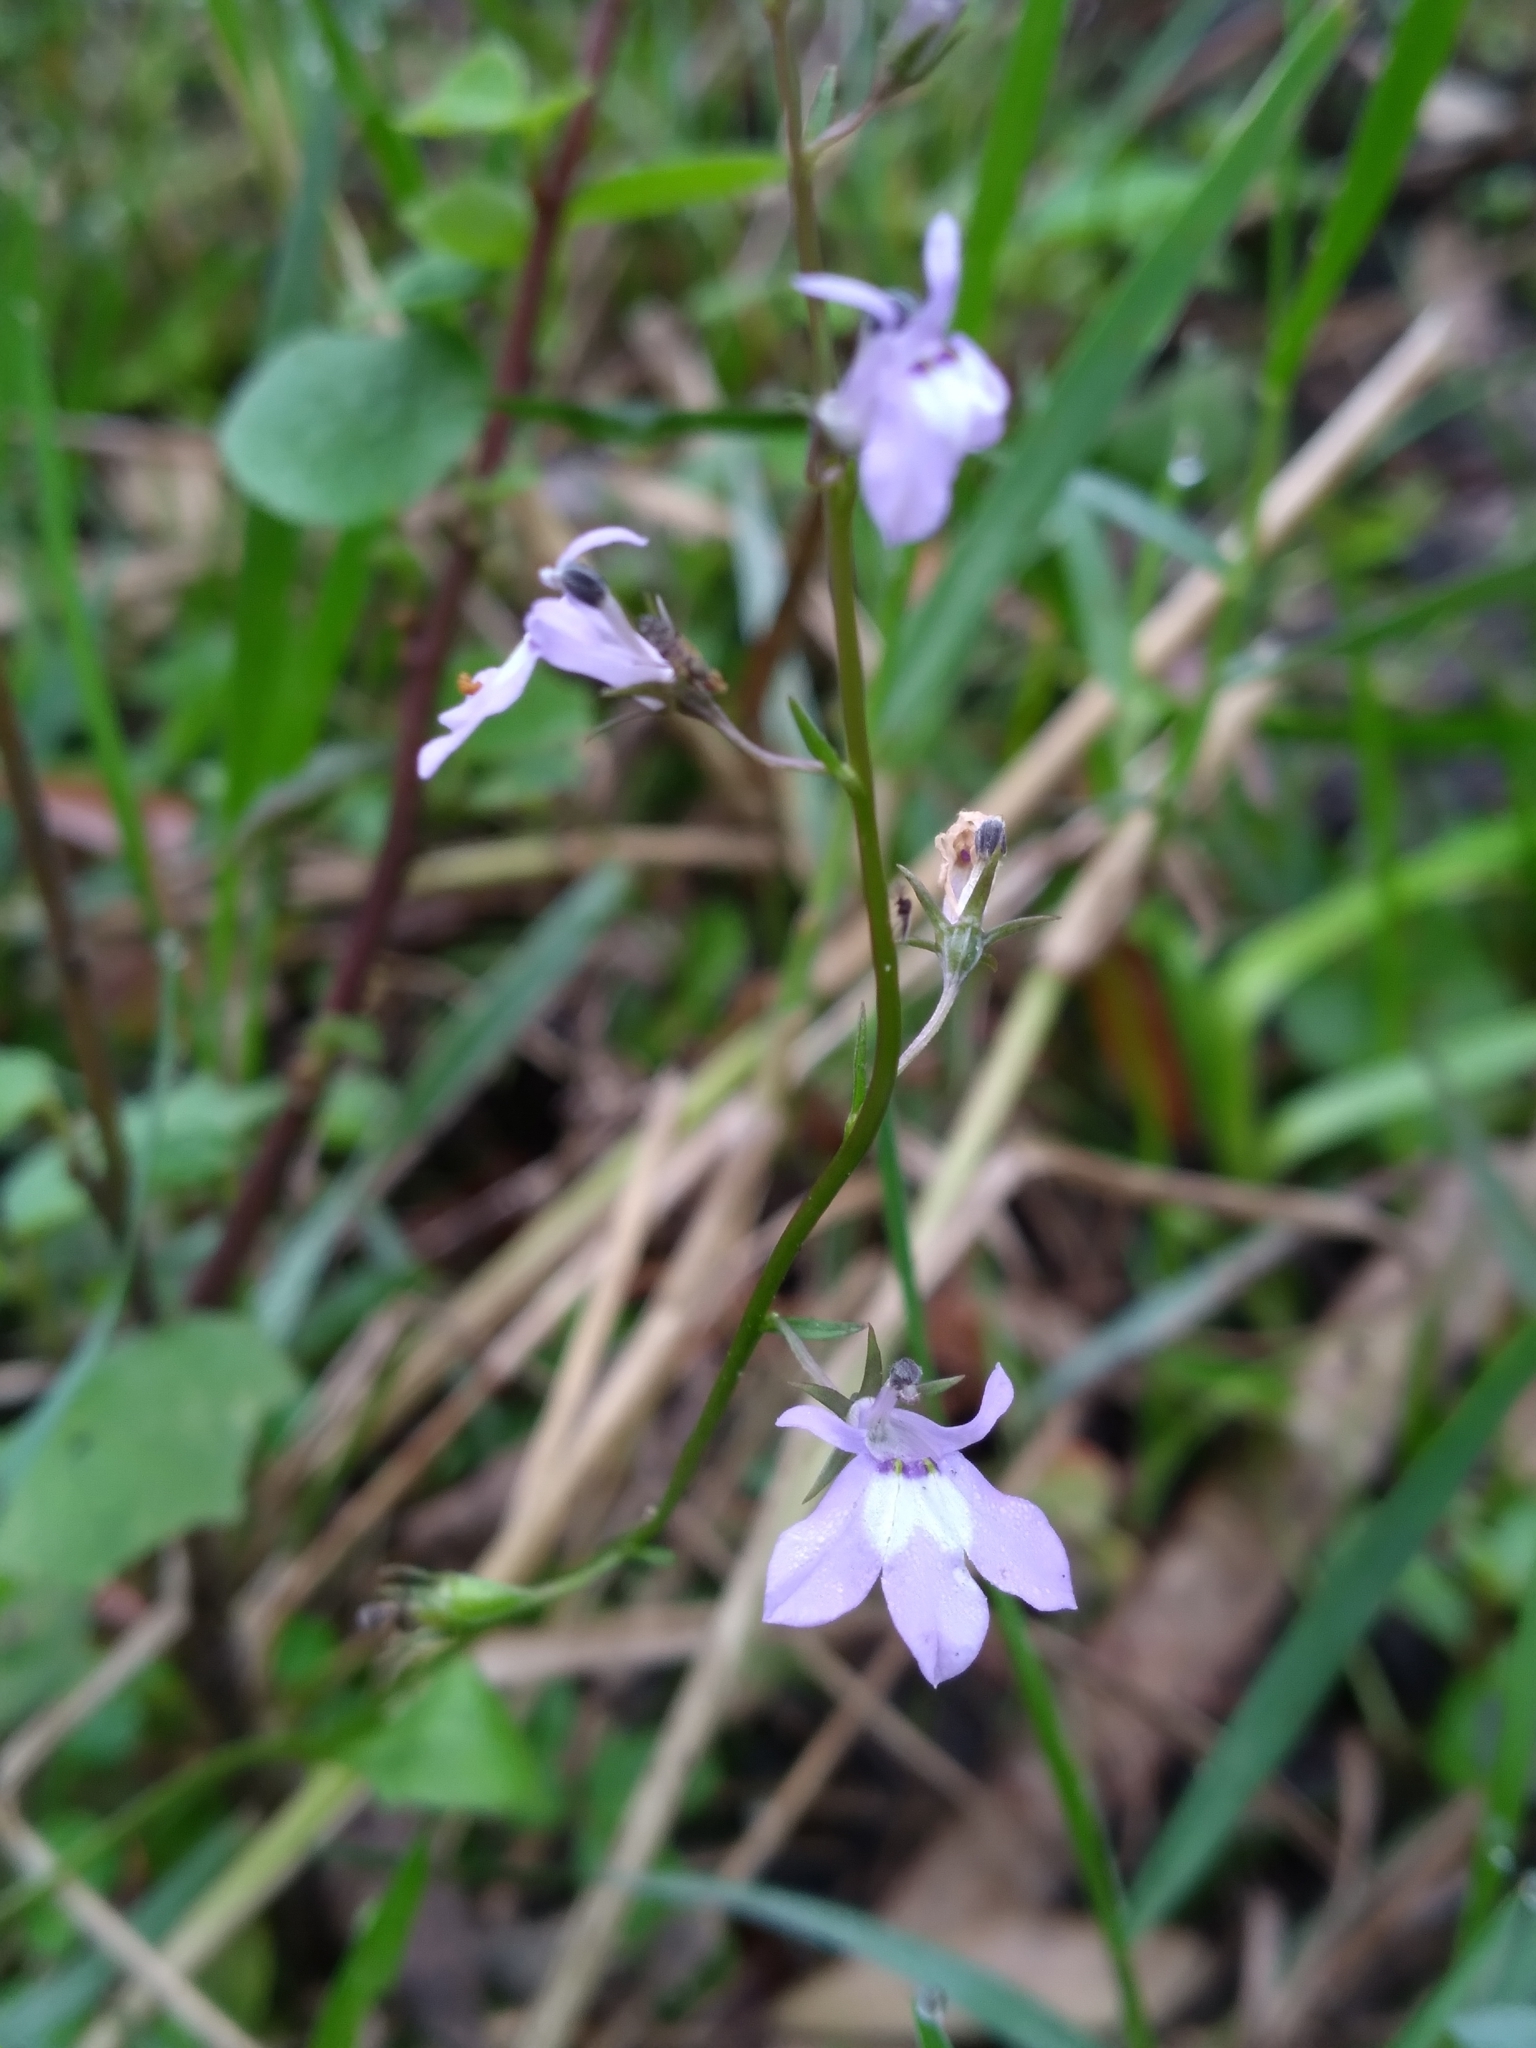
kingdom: Plantae
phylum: Tracheophyta
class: Magnoliopsida
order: Asterales
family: Campanulaceae
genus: Lobelia
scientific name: Lobelia feayana
